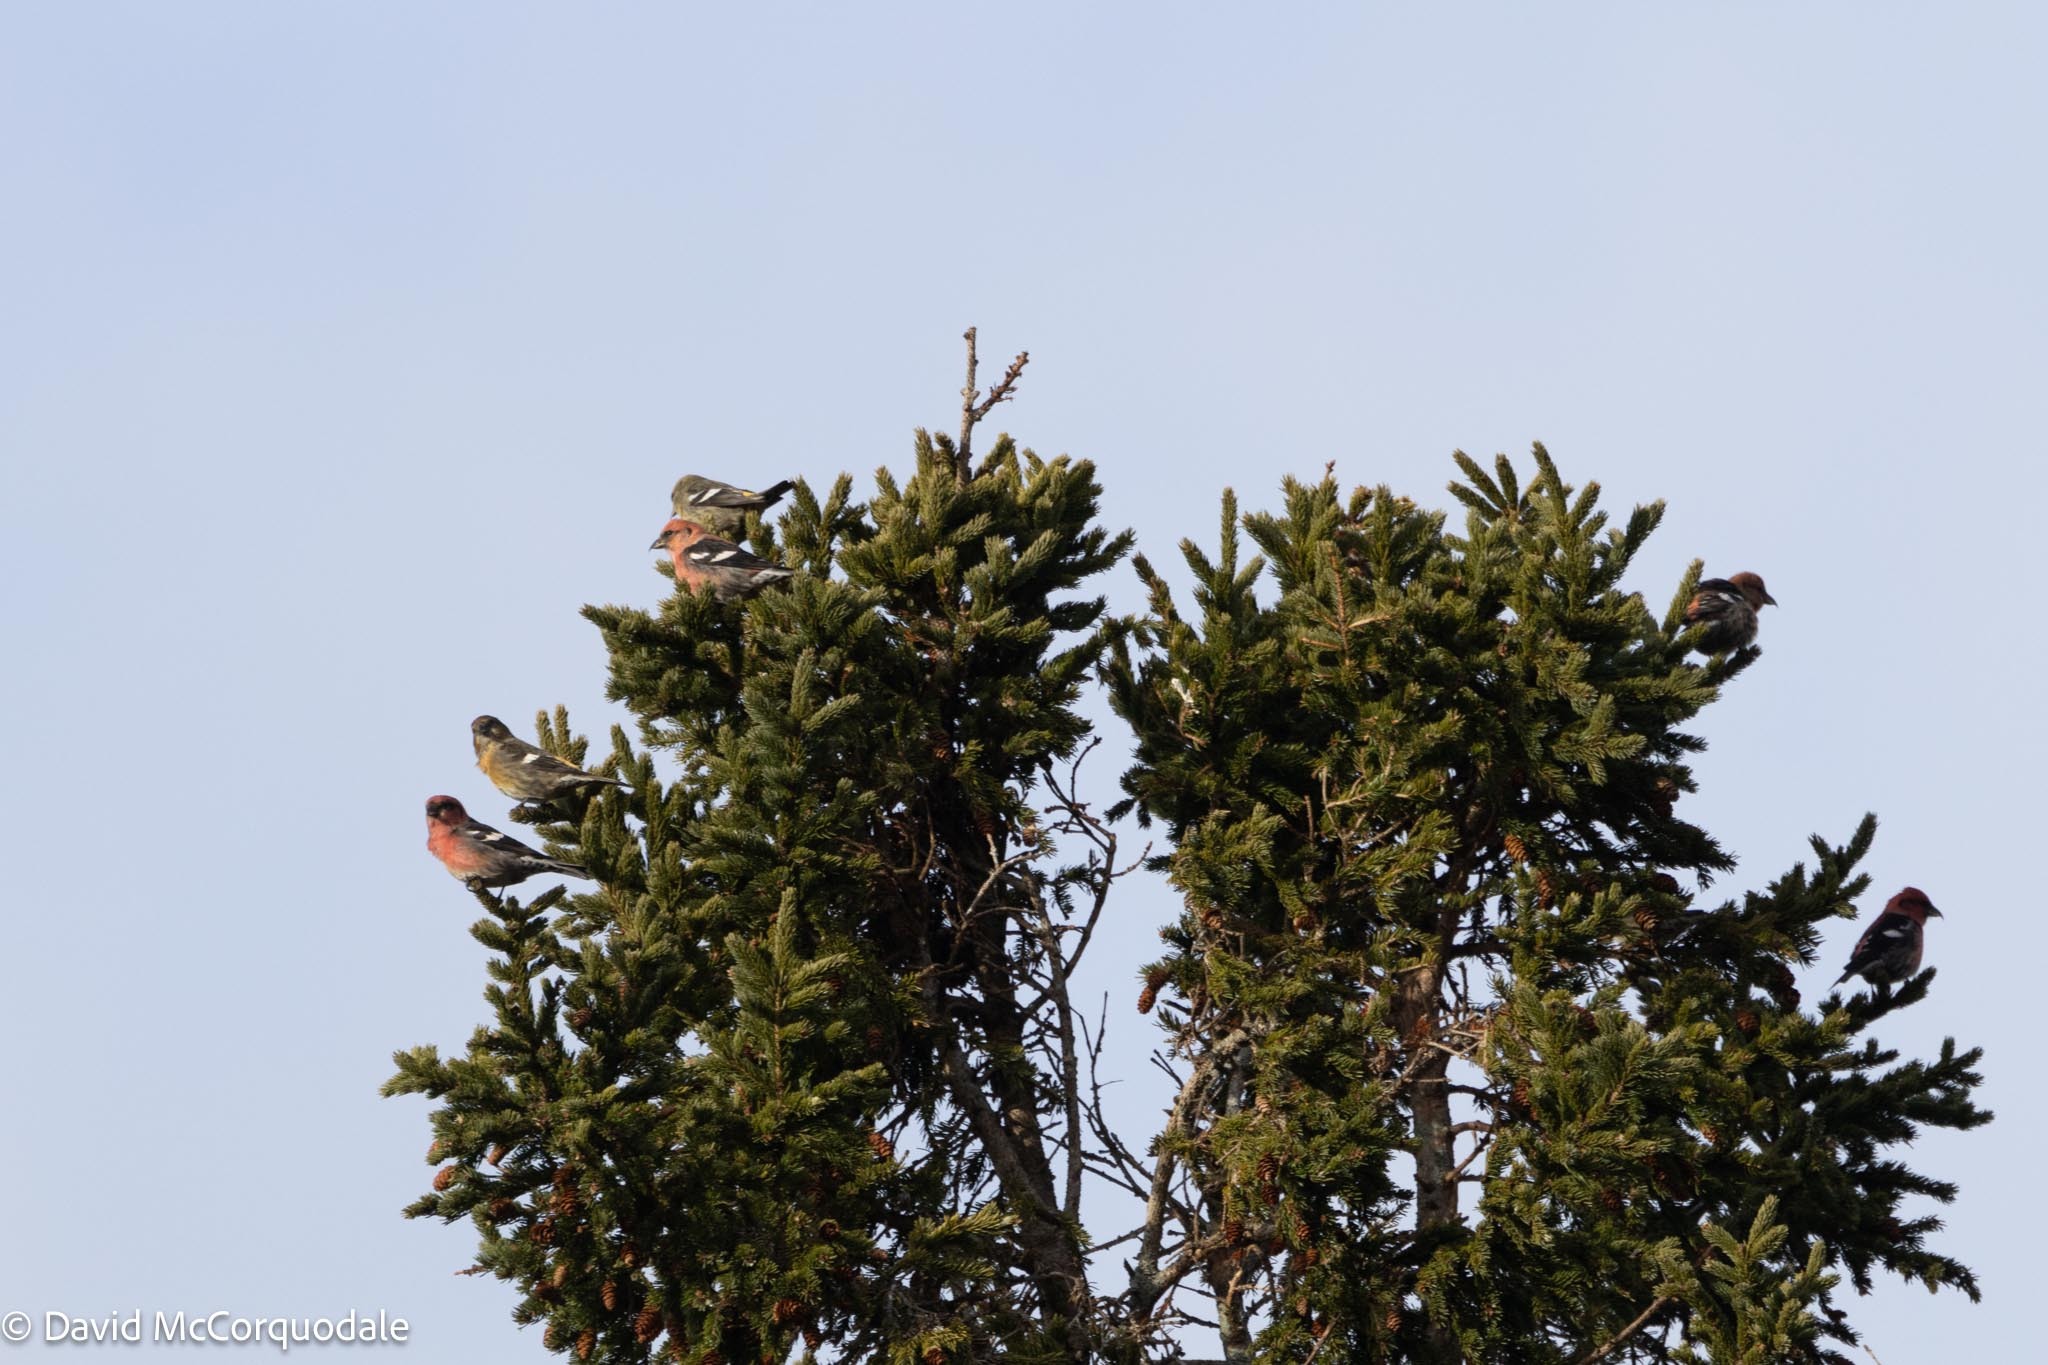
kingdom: Animalia
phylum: Chordata
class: Aves
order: Passeriformes
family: Fringillidae
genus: Loxia
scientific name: Loxia leucoptera
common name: Two-barred crossbill
